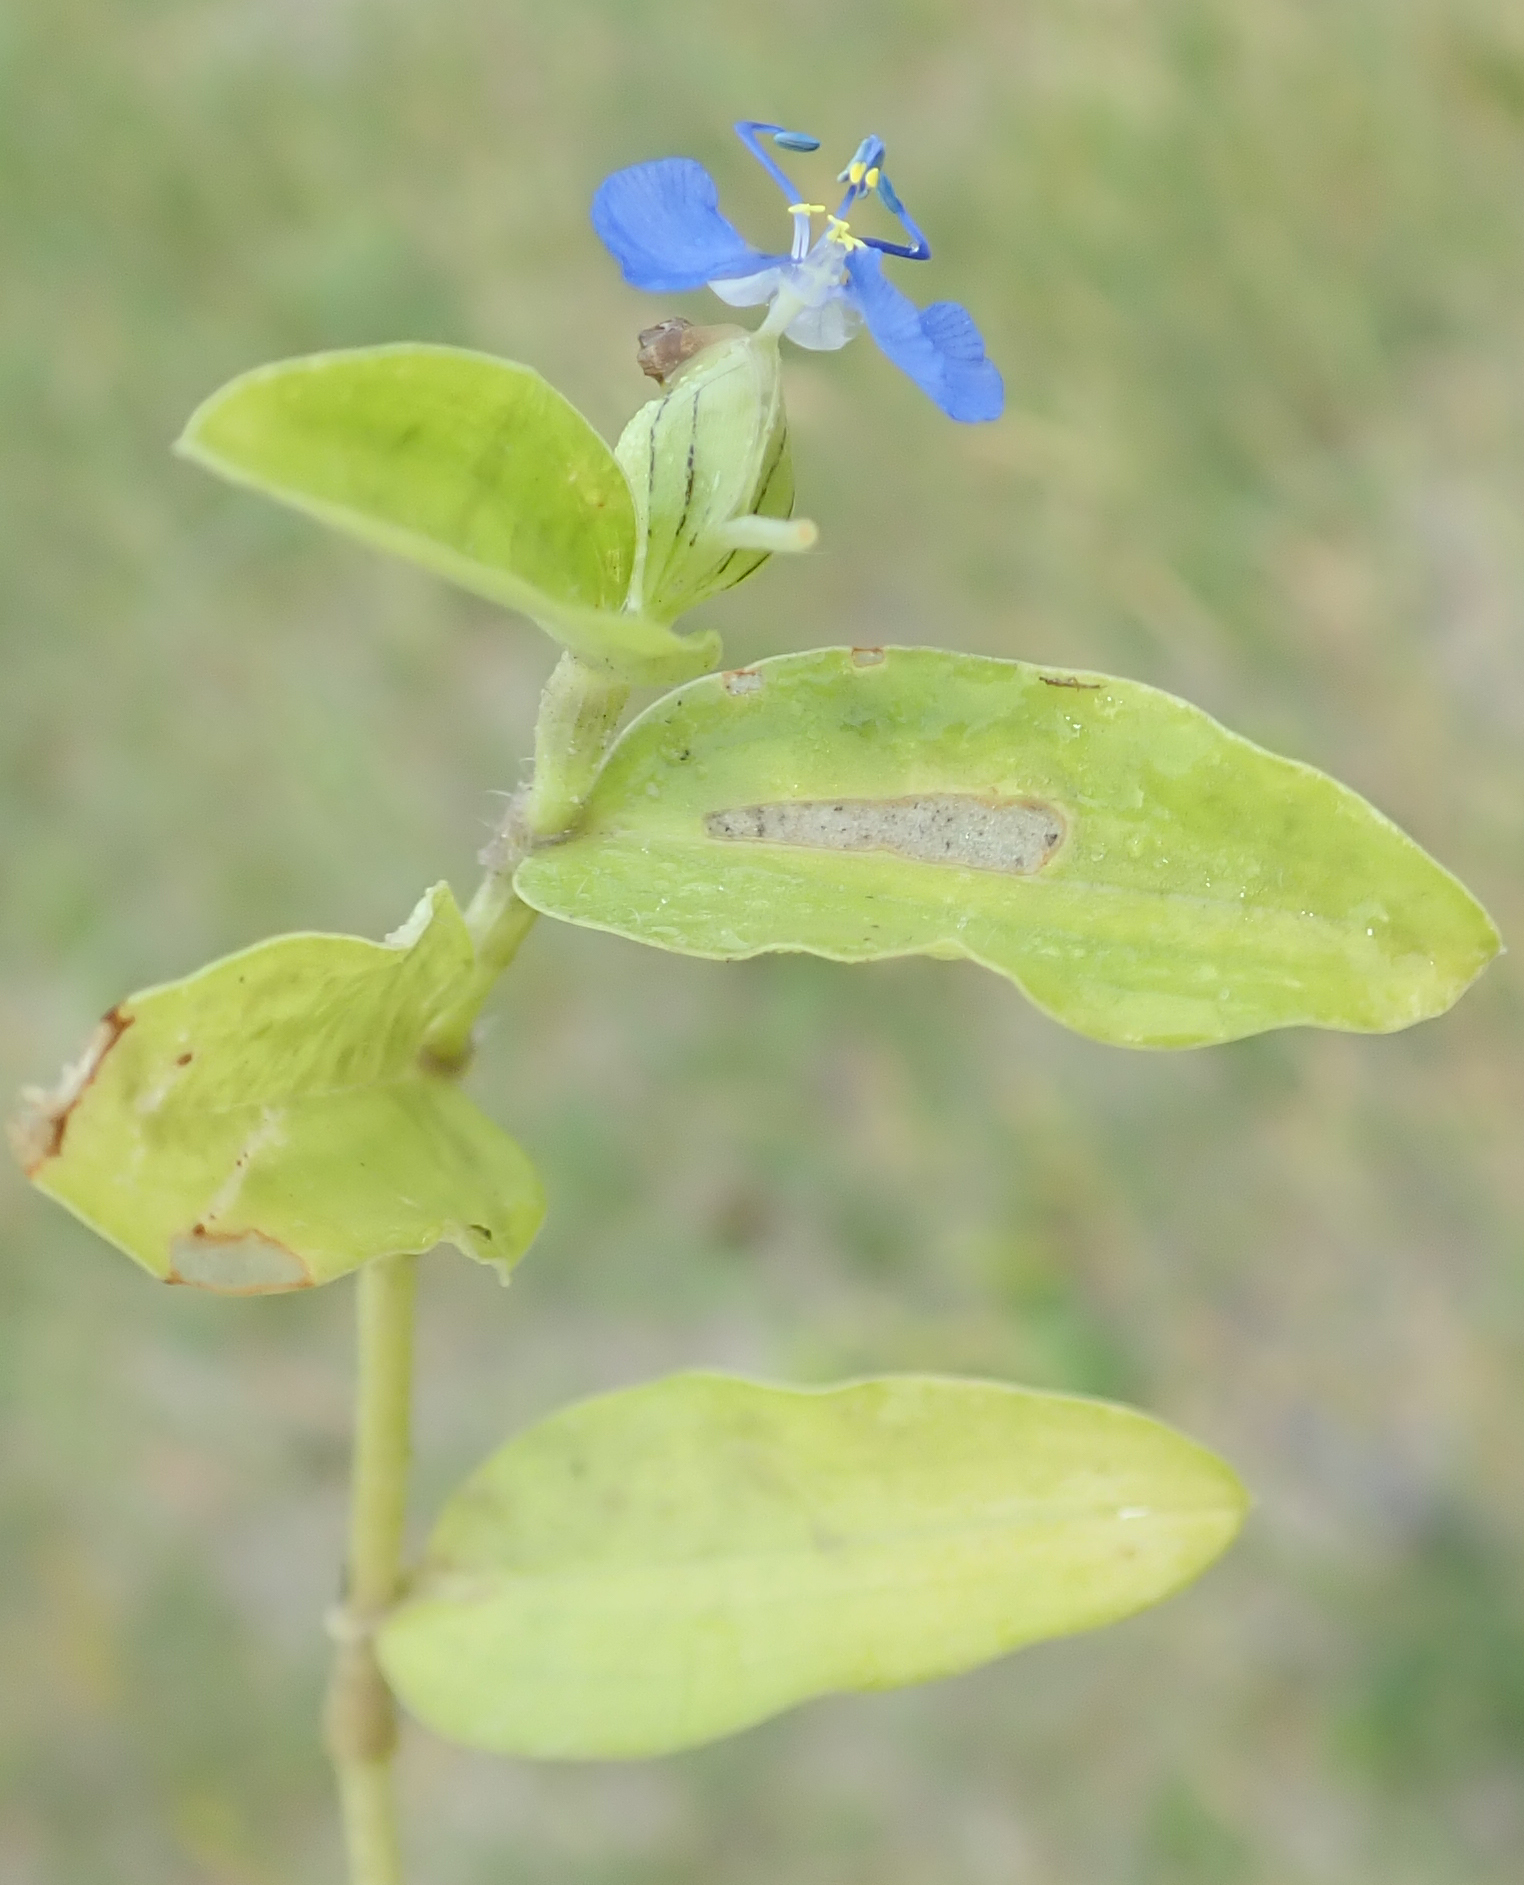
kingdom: Plantae
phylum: Tracheophyta
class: Liliopsida
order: Commelinales
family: Commelinaceae
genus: Commelina
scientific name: Commelina forskaolii
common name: Rat's ear
